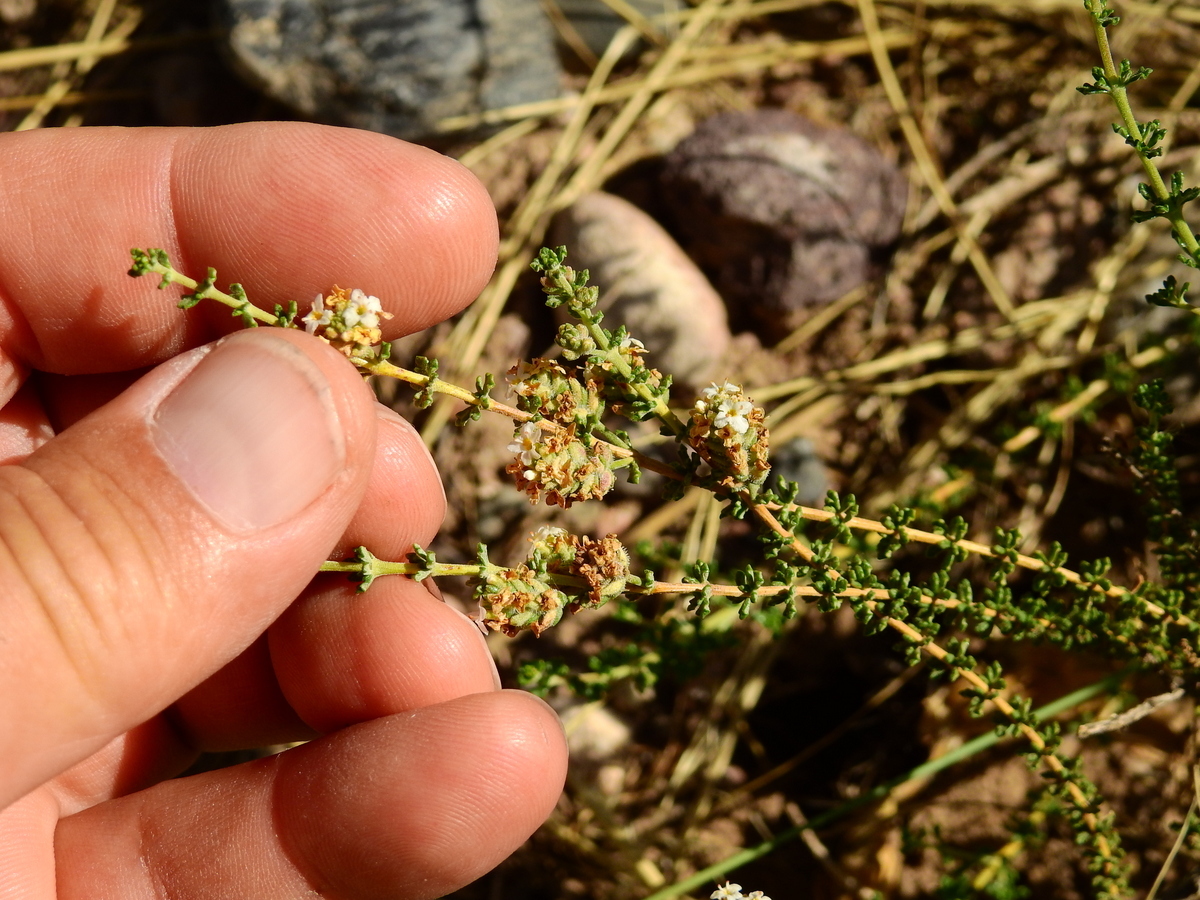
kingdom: Plantae
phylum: Tracheophyta
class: Magnoliopsida
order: Lamiales
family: Verbenaceae
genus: Acantholippia
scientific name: Acantholippia seriphioides
